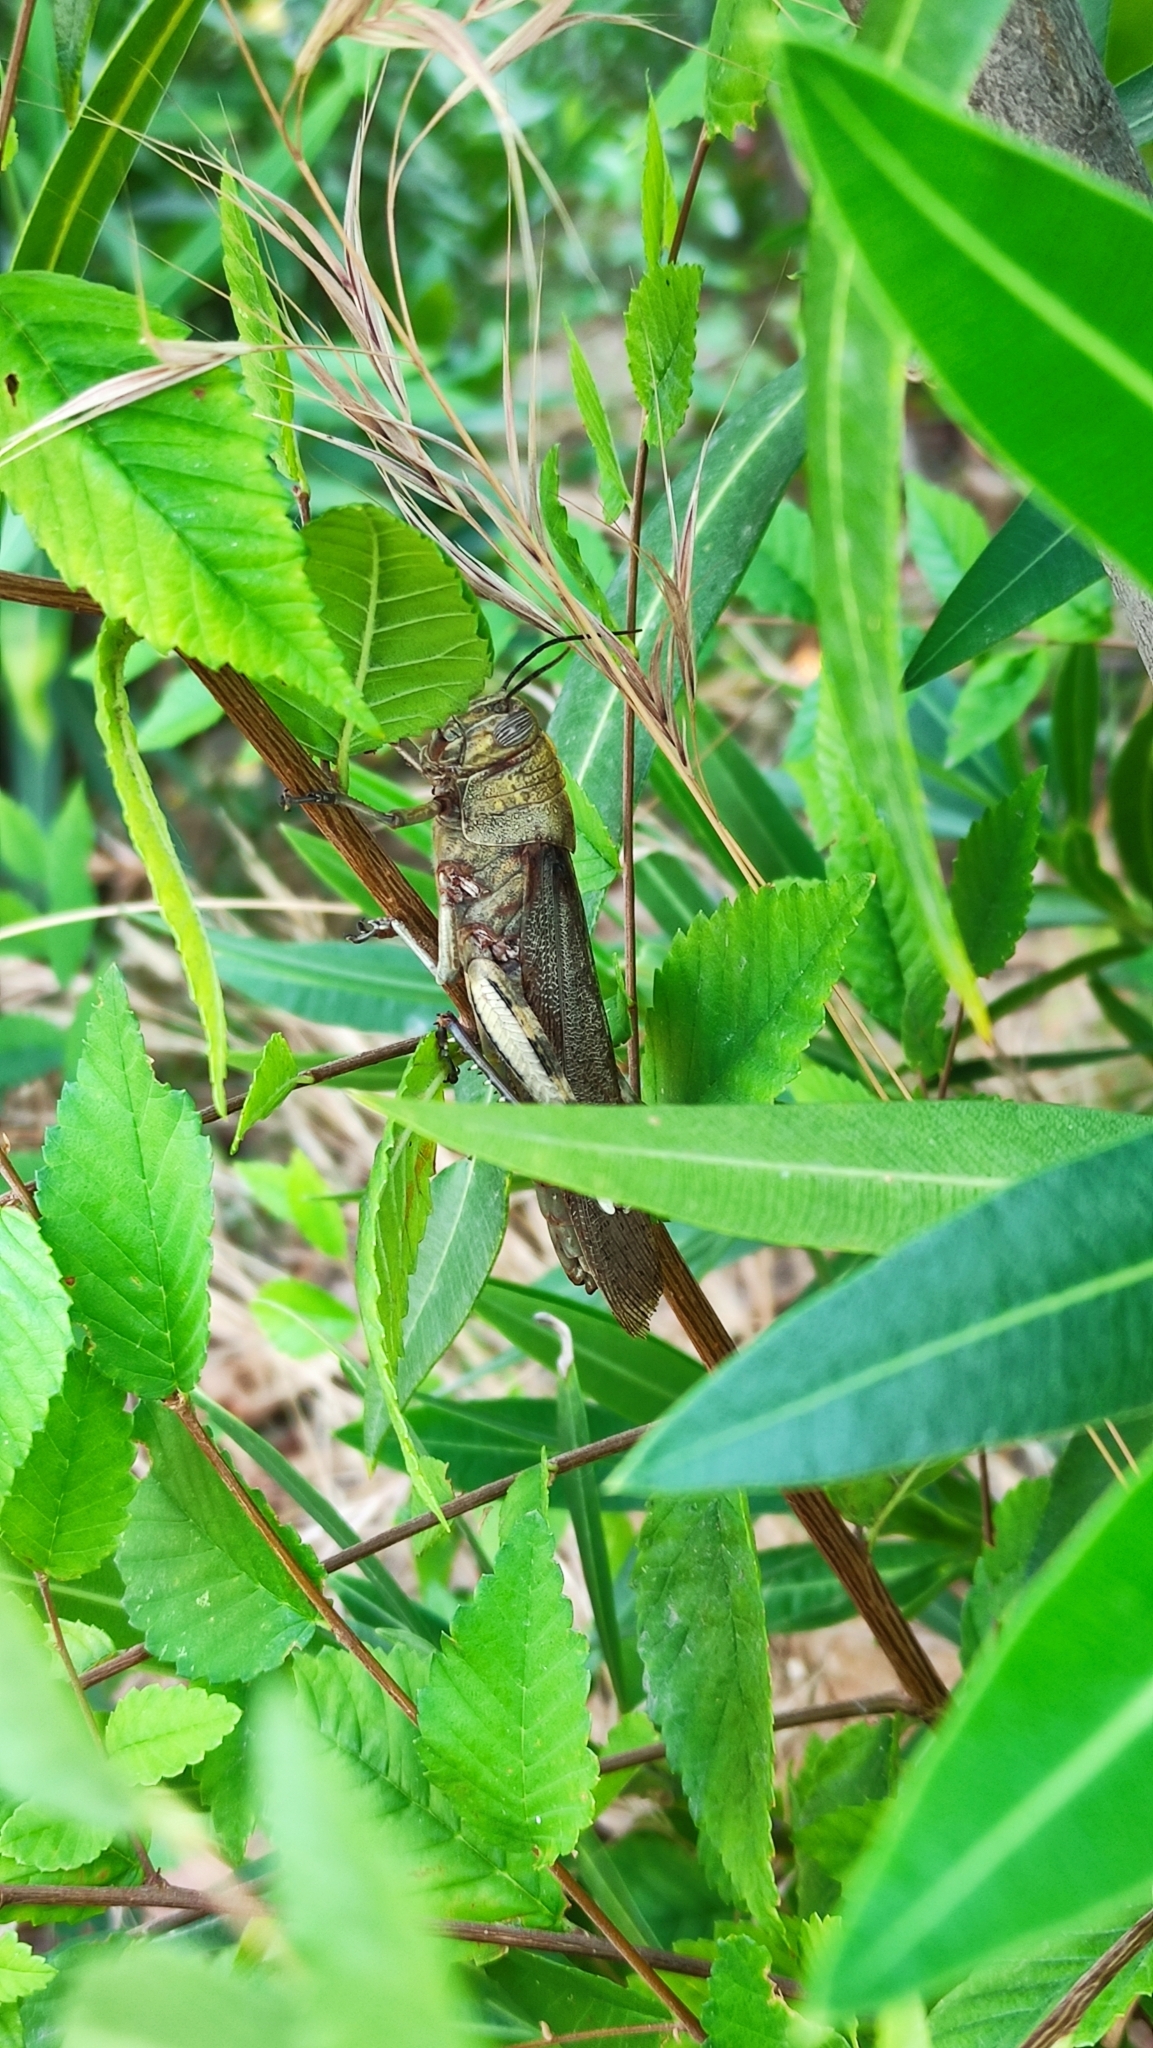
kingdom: Animalia
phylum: Arthropoda
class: Insecta
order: Orthoptera
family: Acrididae
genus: Anacridium
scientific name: Anacridium aegyptium
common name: Egyptian grasshopper
